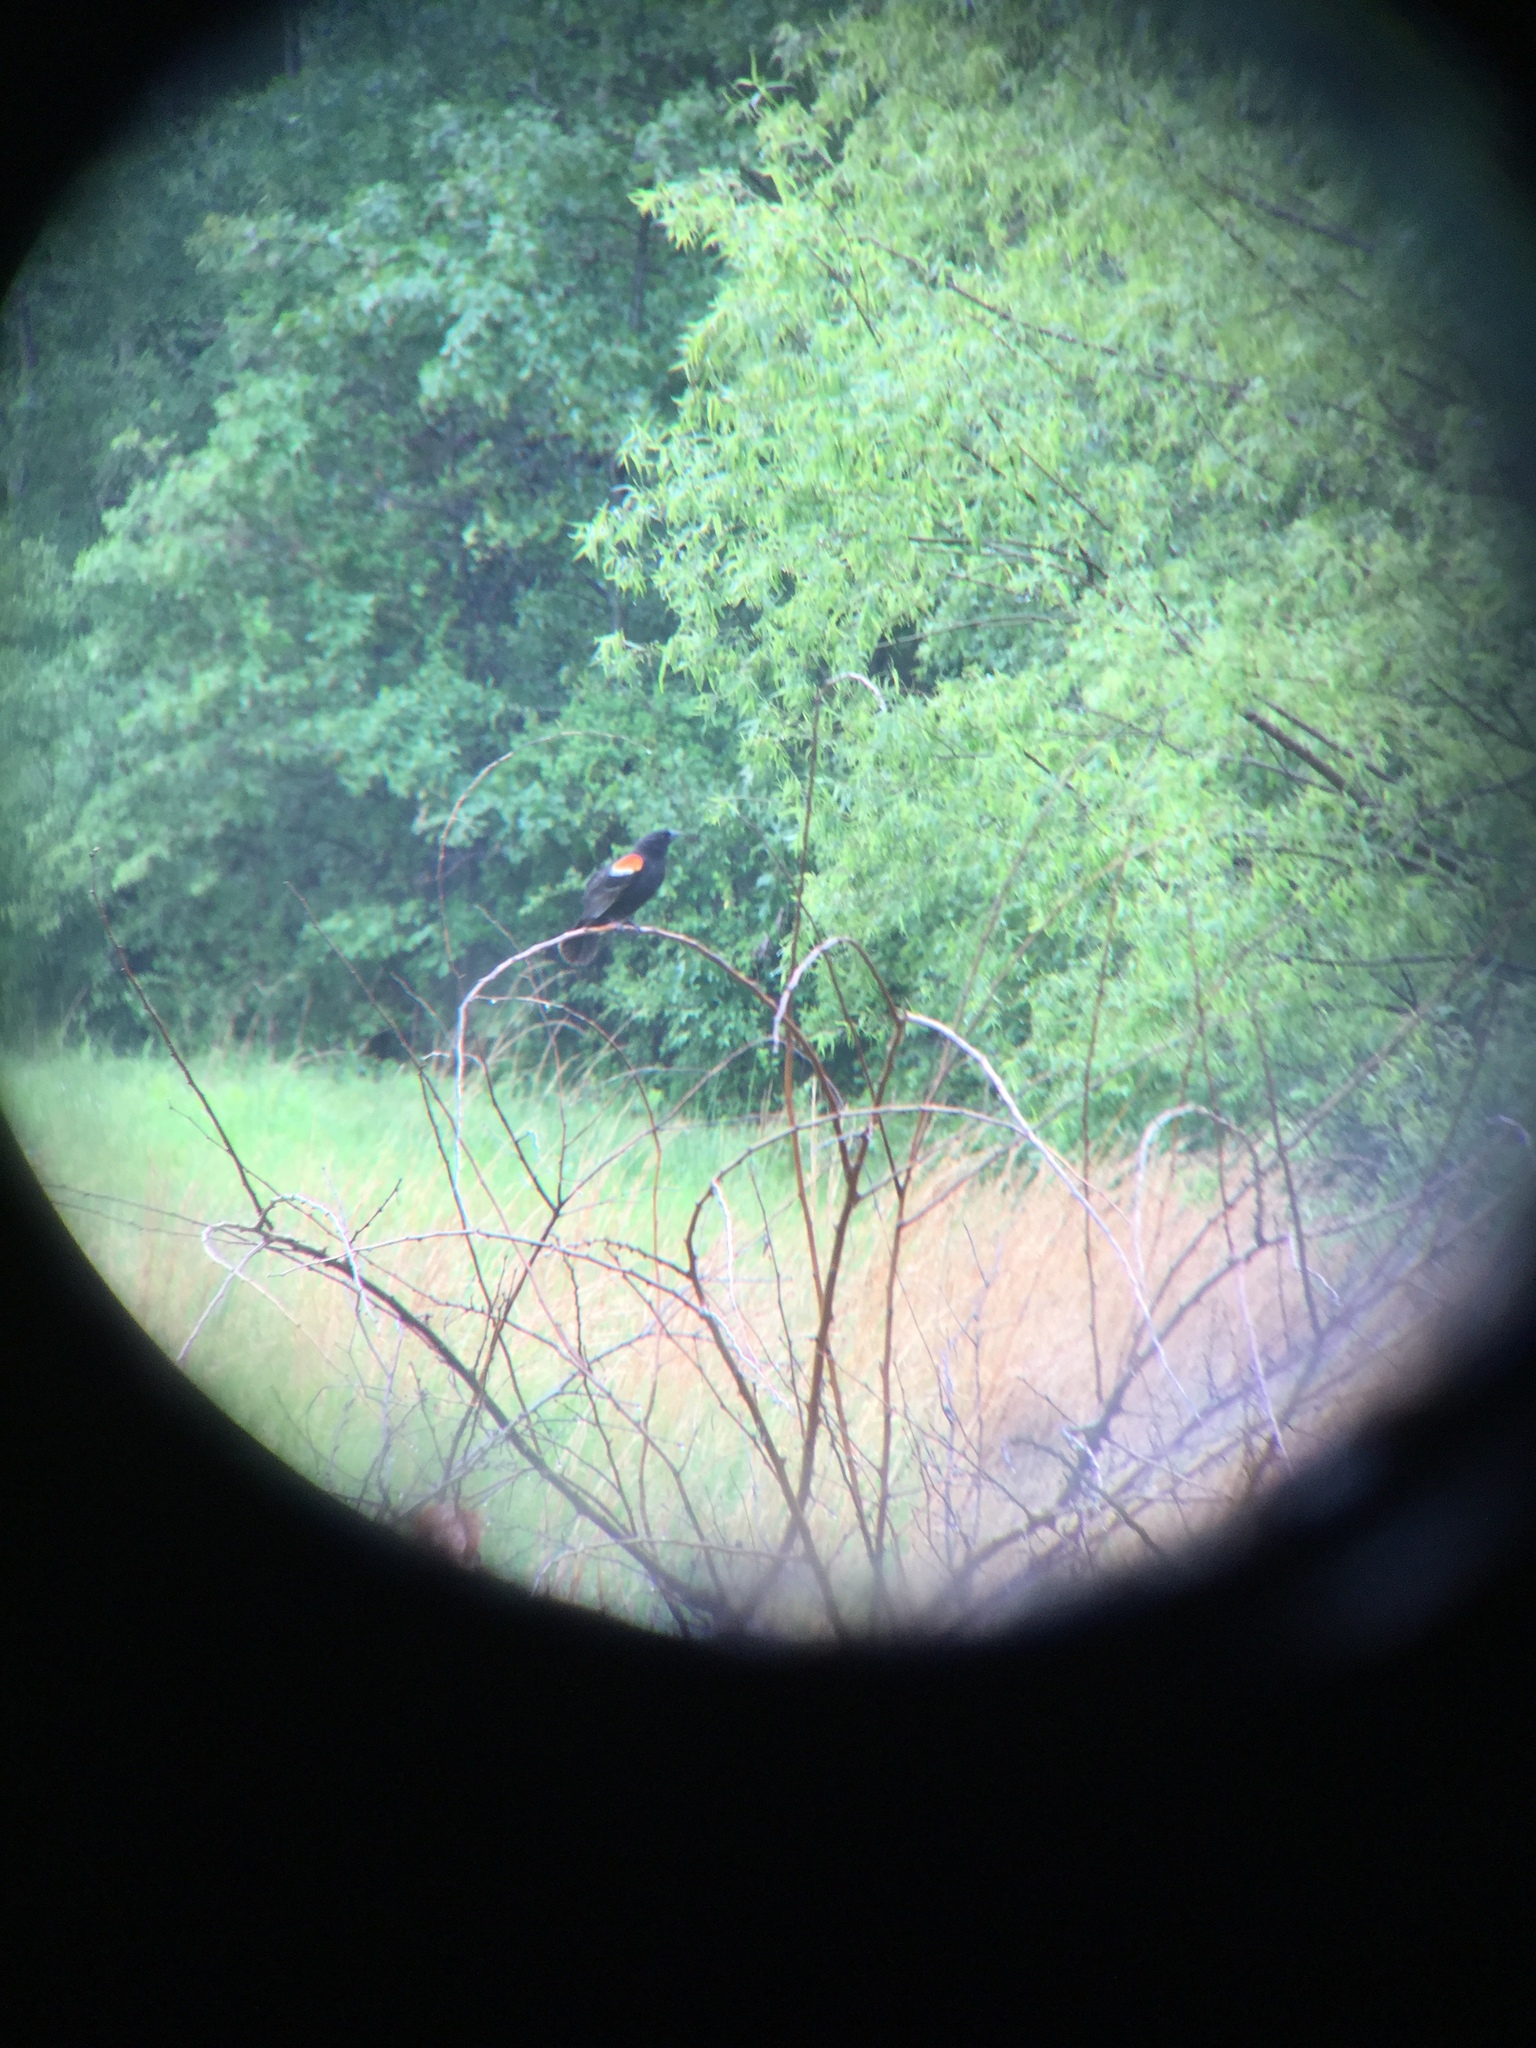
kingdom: Animalia
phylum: Chordata
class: Aves
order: Passeriformes
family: Icteridae
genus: Agelaius
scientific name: Agelaius phoeniceus
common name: Red-winged blackbird
